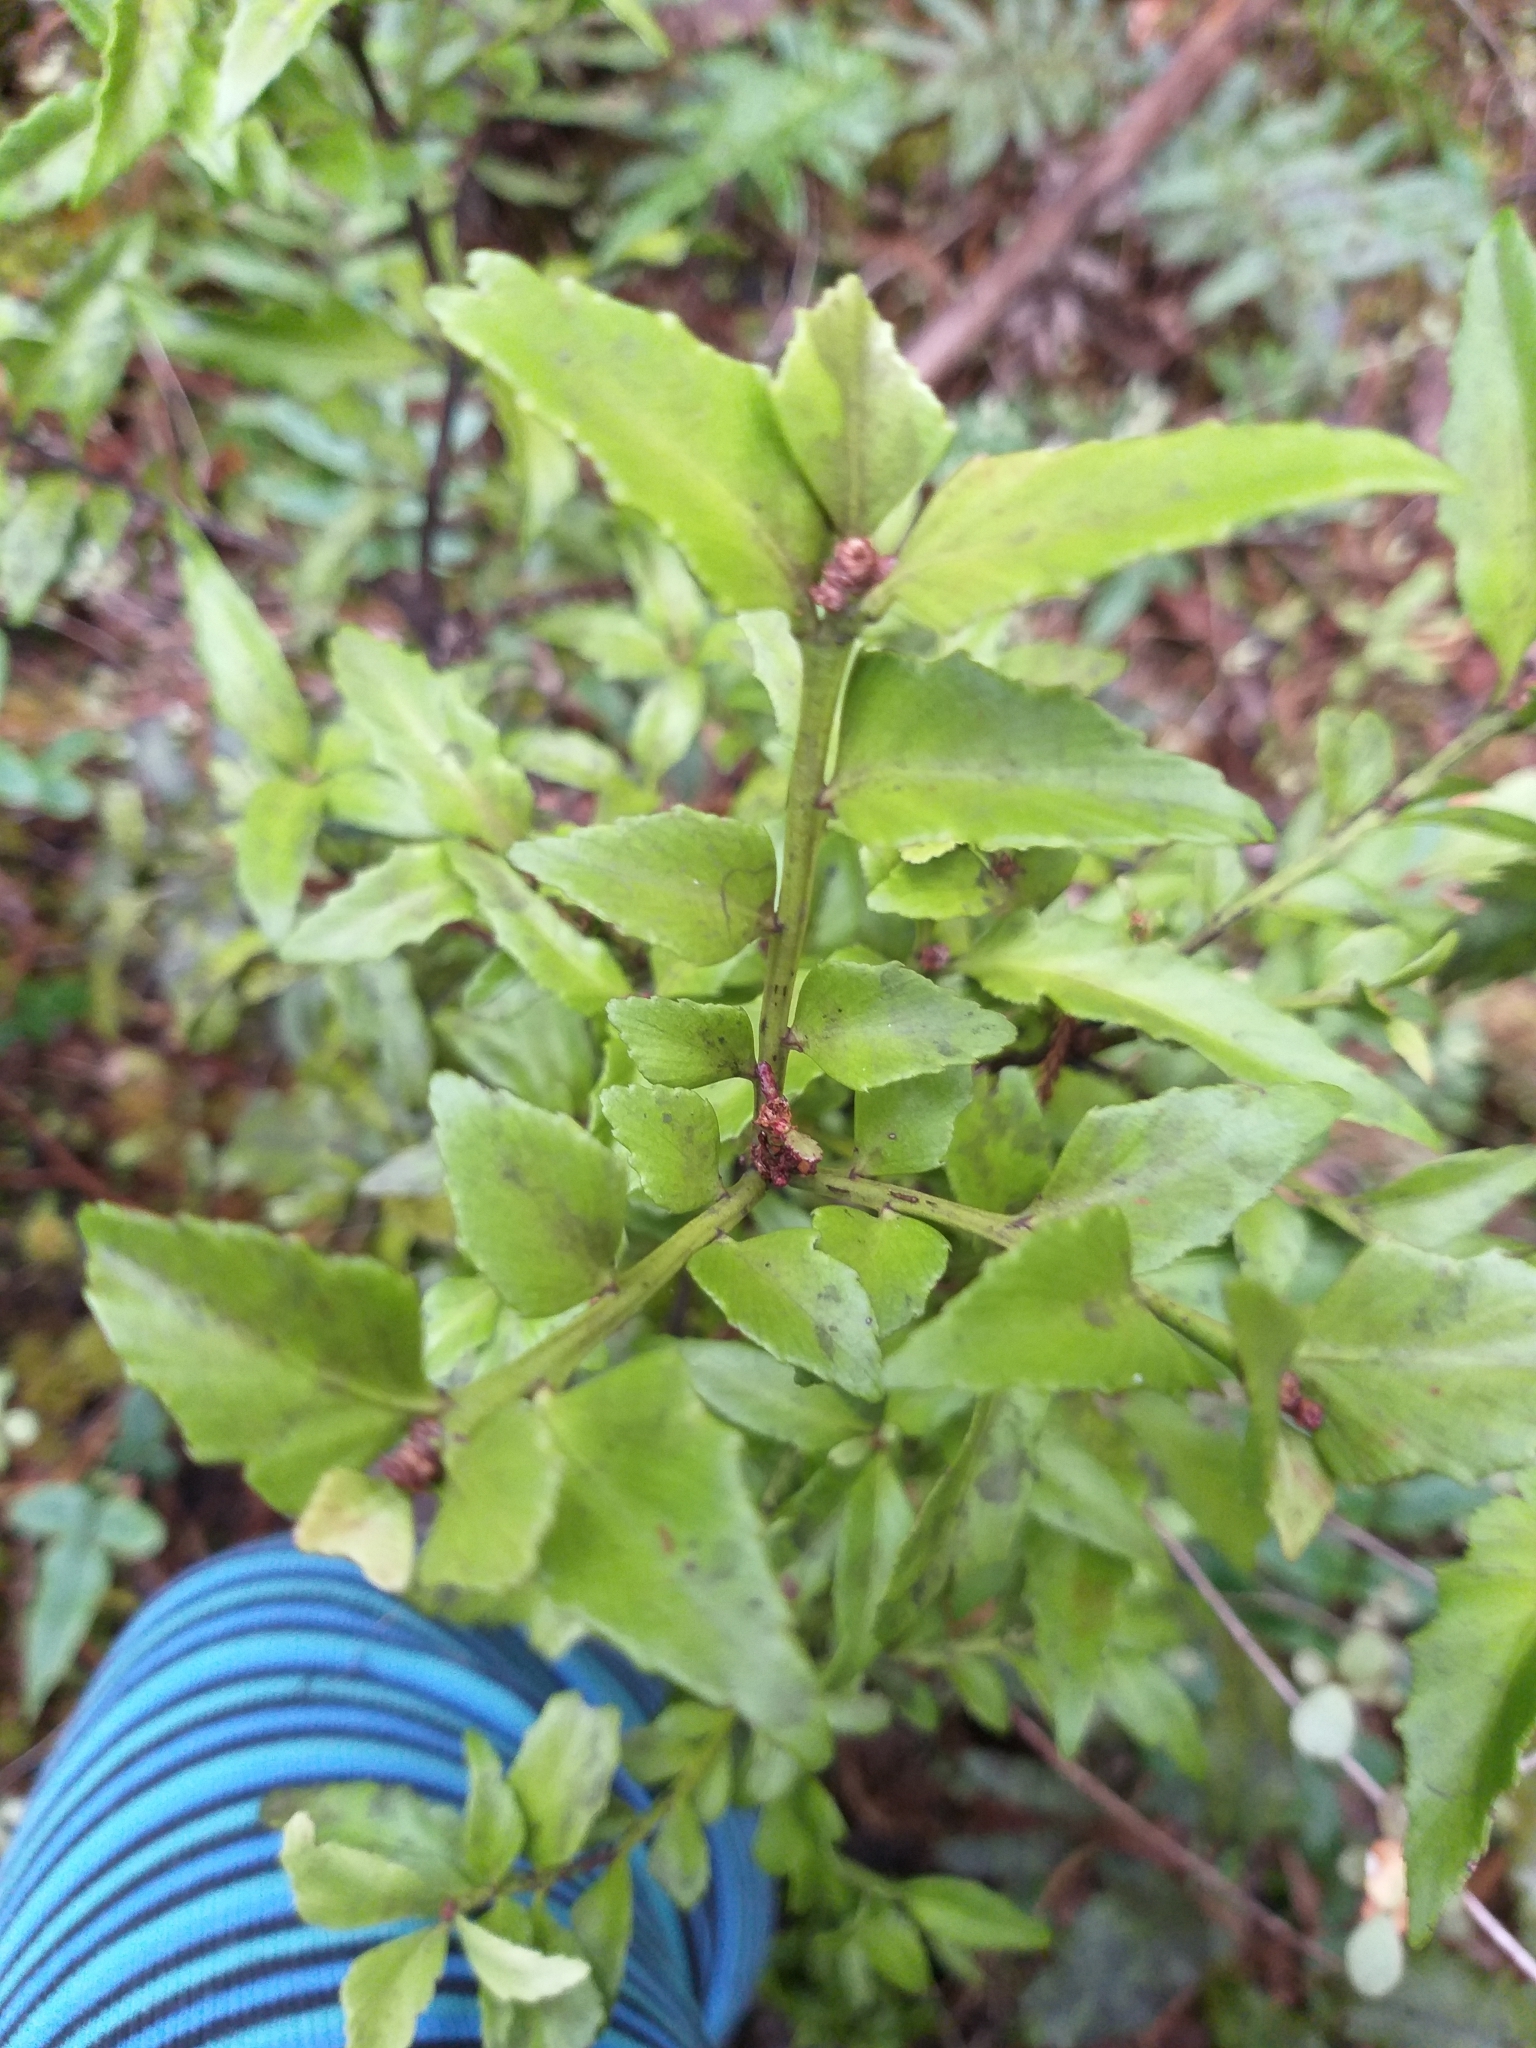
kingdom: Plantae
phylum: Tracheophyta
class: Pinopsida
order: Pinales
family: Phyllocladaceae
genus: Phyllocladus
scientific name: Phyllocladus trichomanoides
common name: Celery pine
